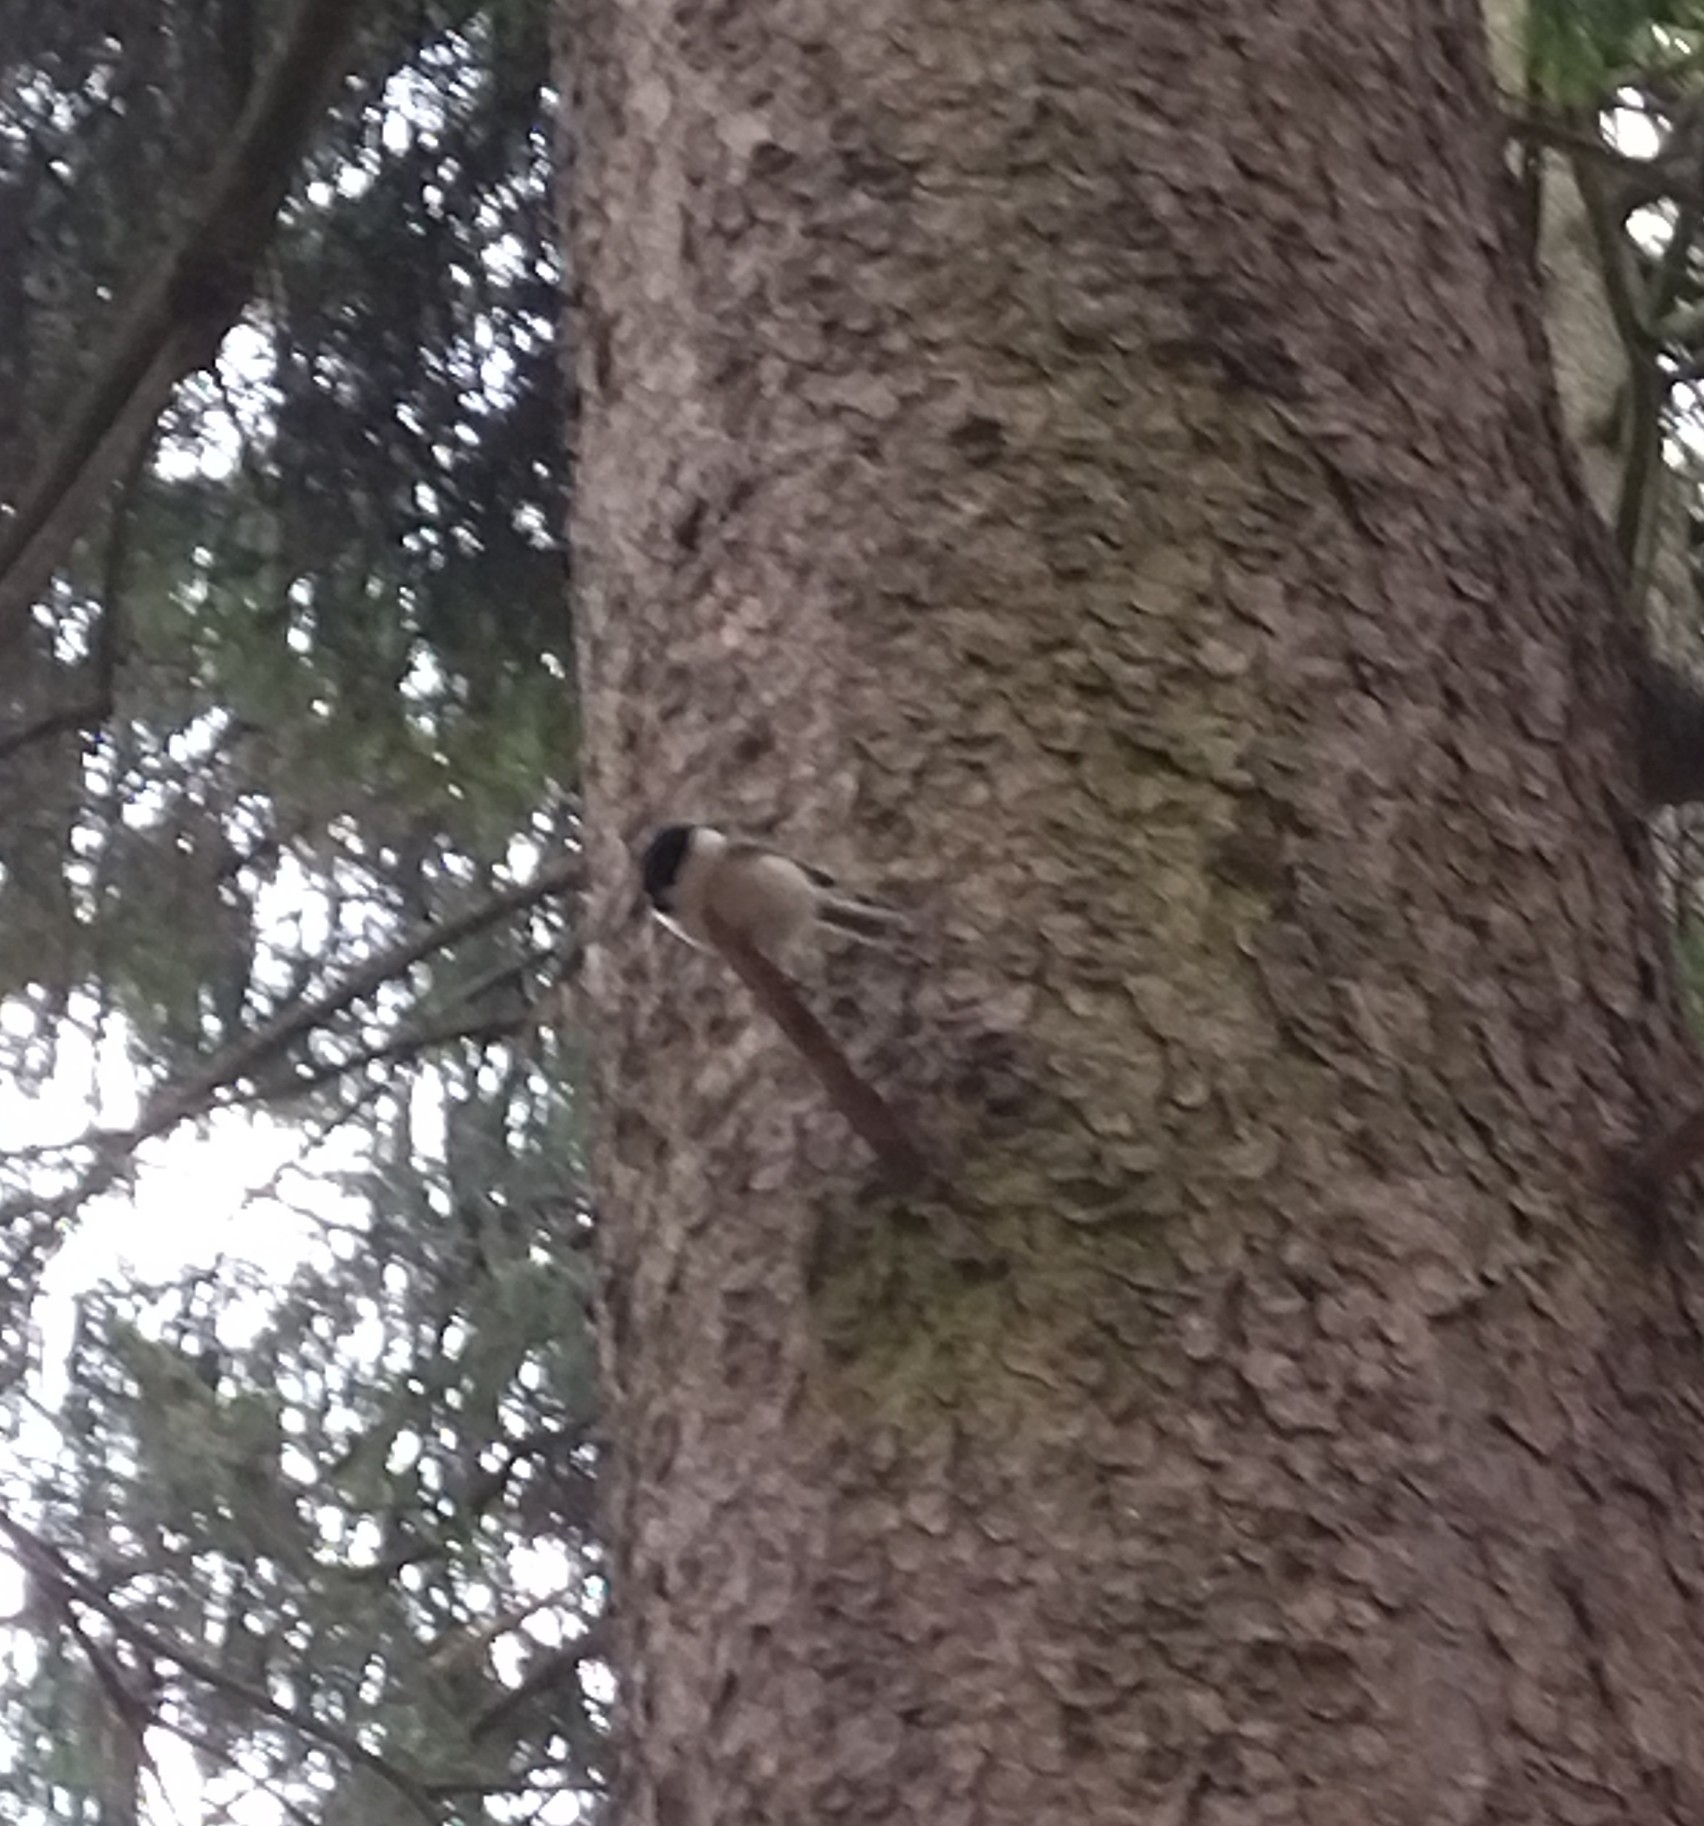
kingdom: Animalia
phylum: Chordata
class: Aves
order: Passeriformes
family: Paridae
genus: Poecile
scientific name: Poecile montanus
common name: Willow tit
